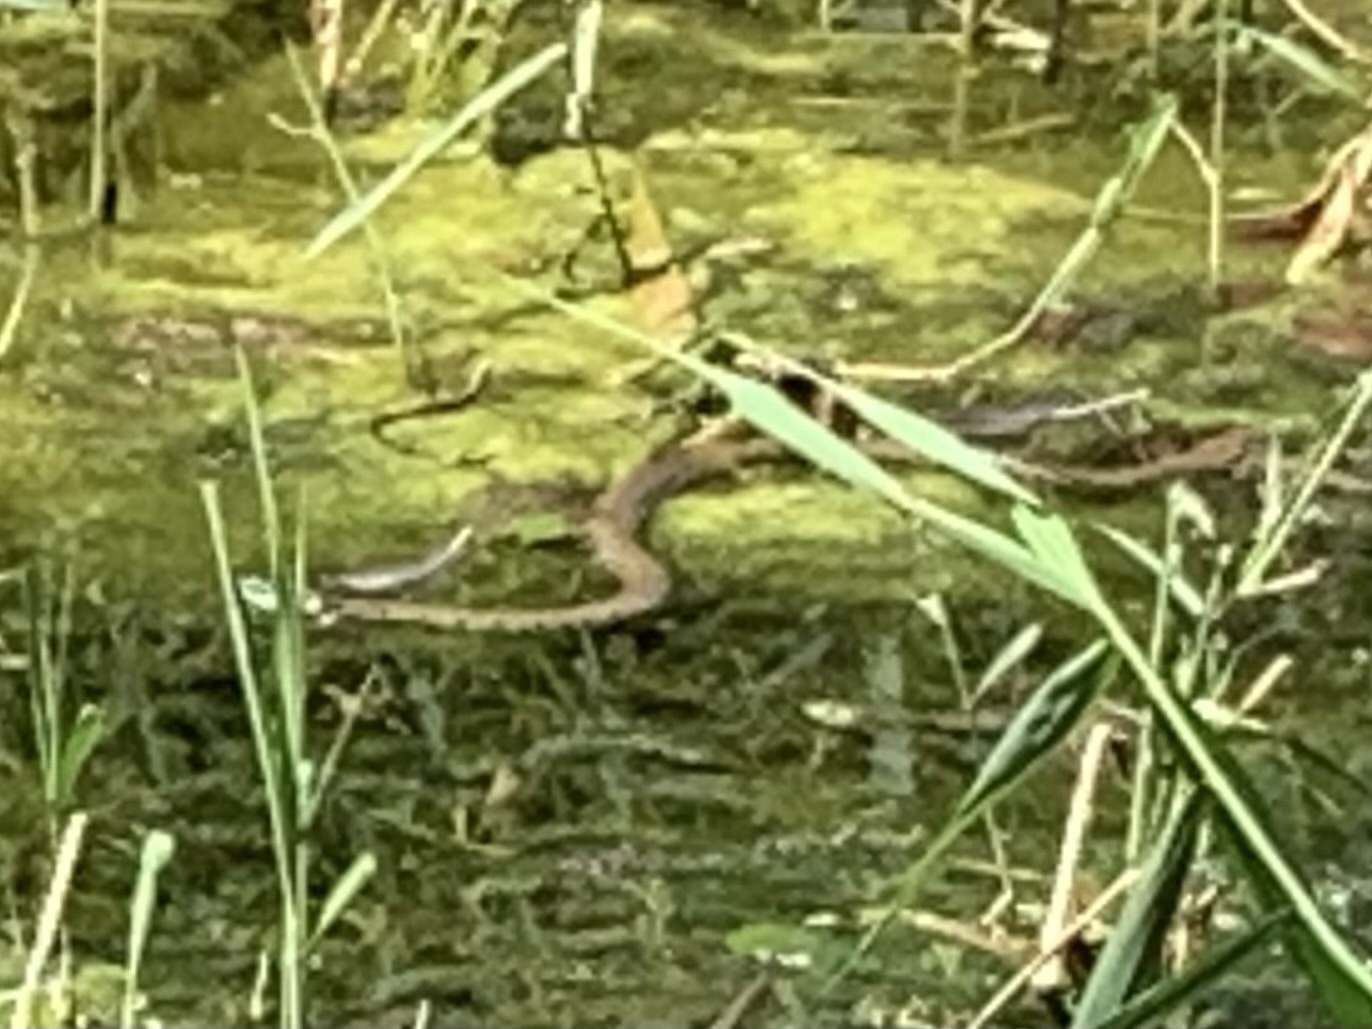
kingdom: Animalia
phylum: Chordata
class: Squamata
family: Colubridae
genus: Natrix
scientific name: Natrix helvetica
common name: Banded grass snake
